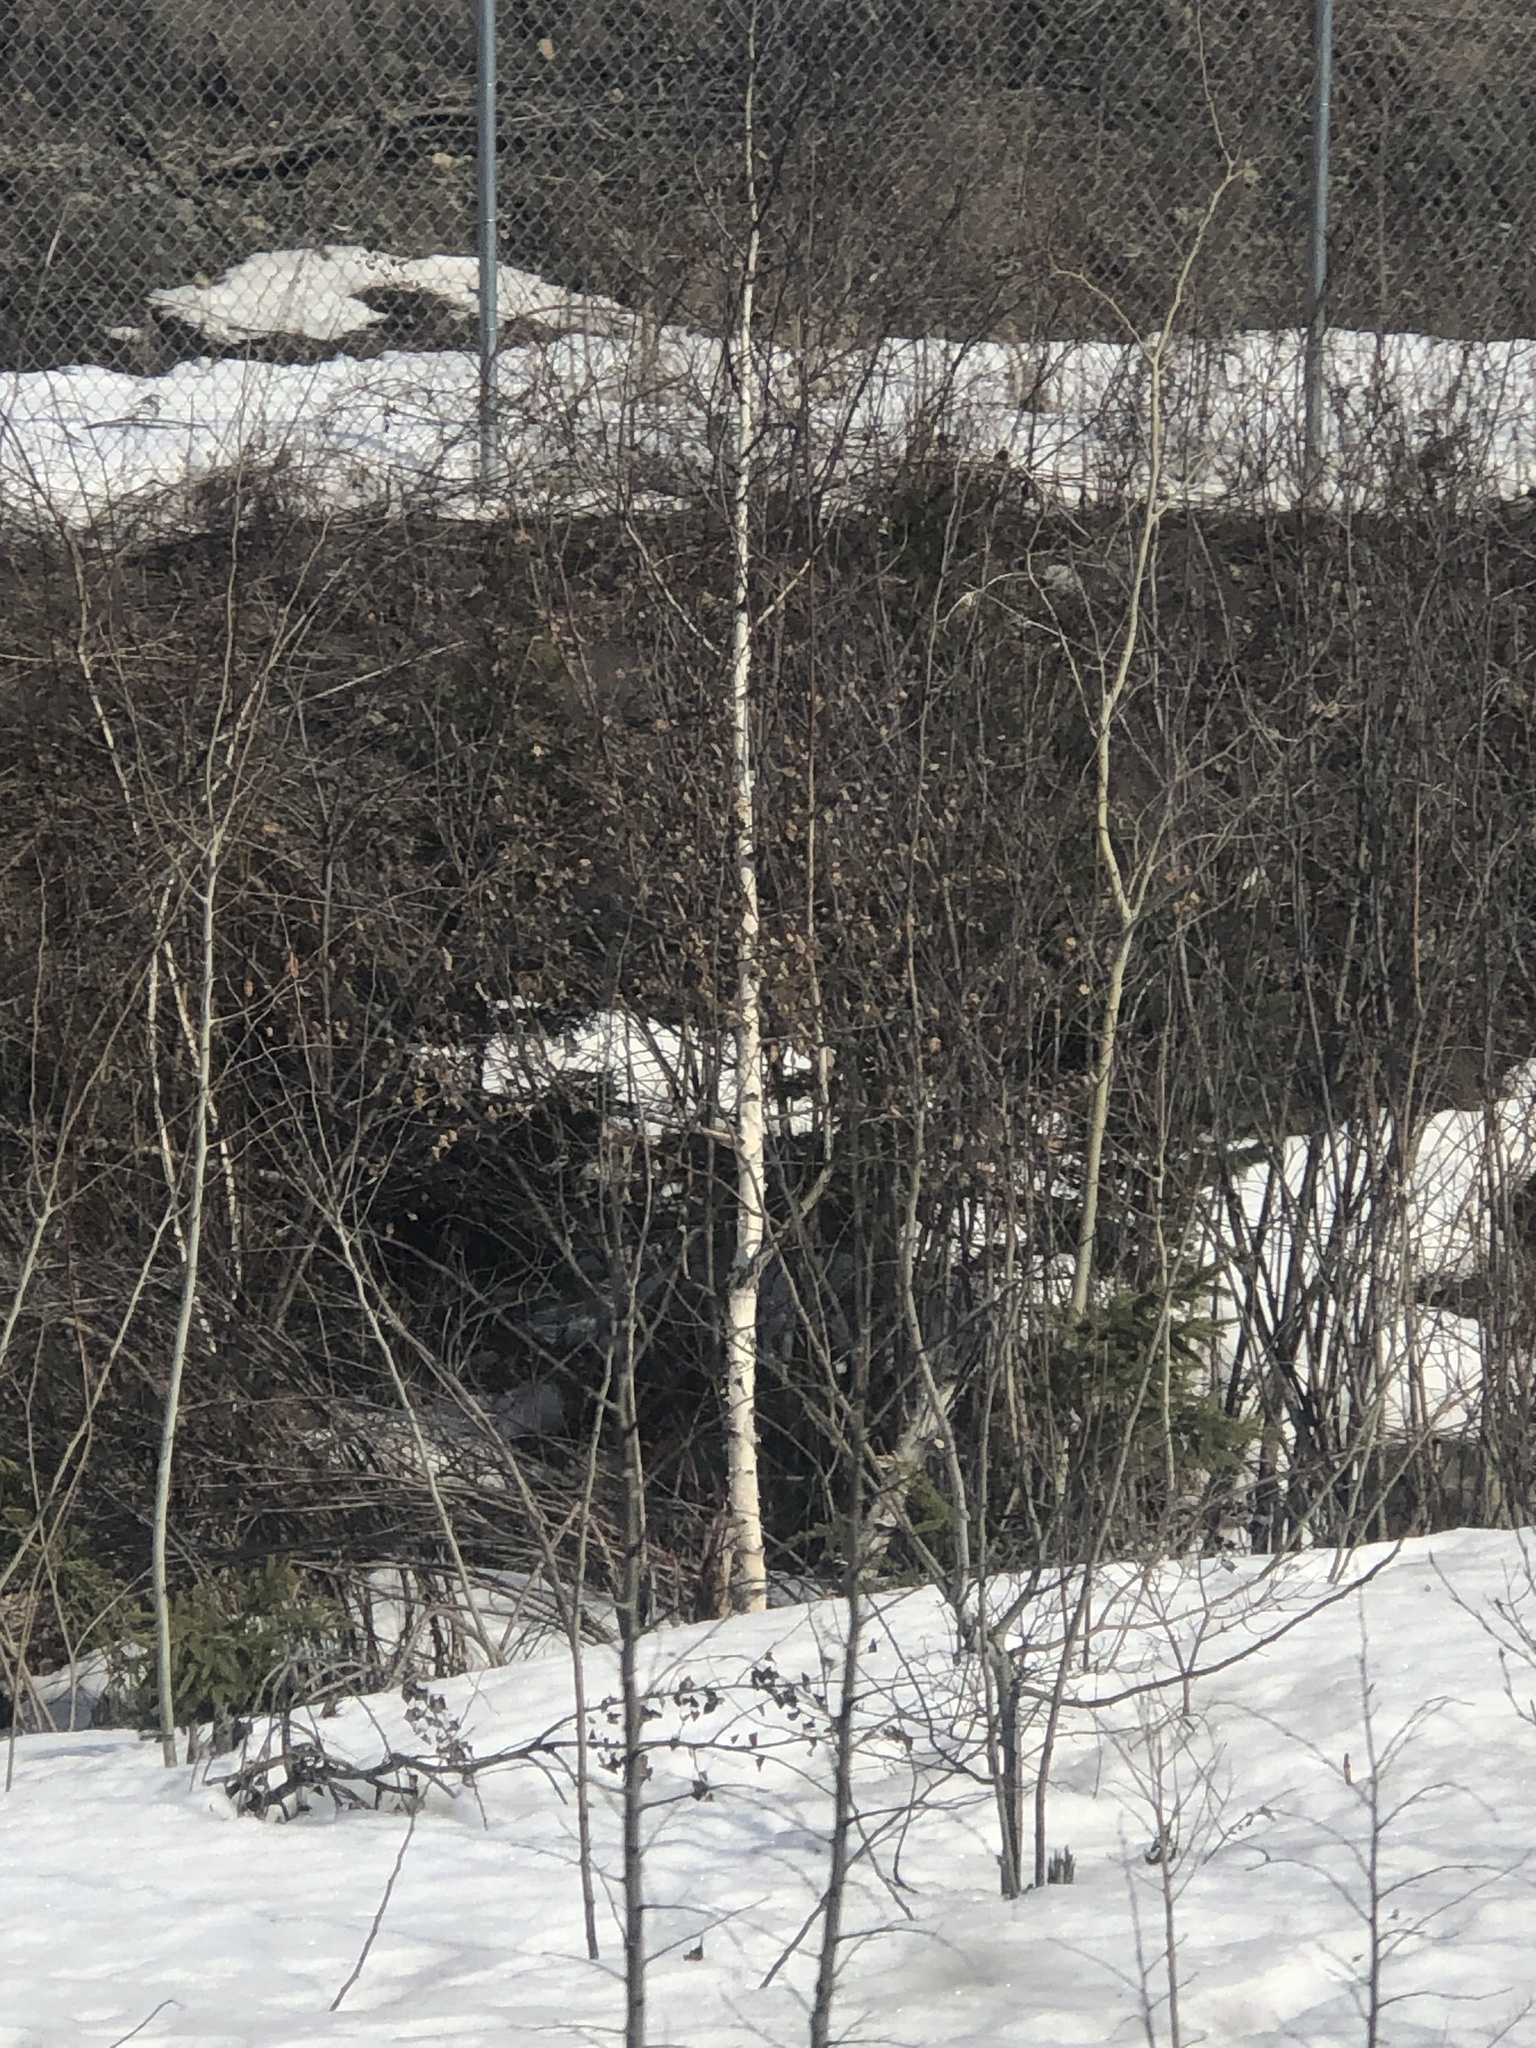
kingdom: Plantae
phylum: Tracheophyta
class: Magnoliopsida
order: Fagales
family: Betulaceae
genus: Betula
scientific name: Betula papyrifera
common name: Paper birch
